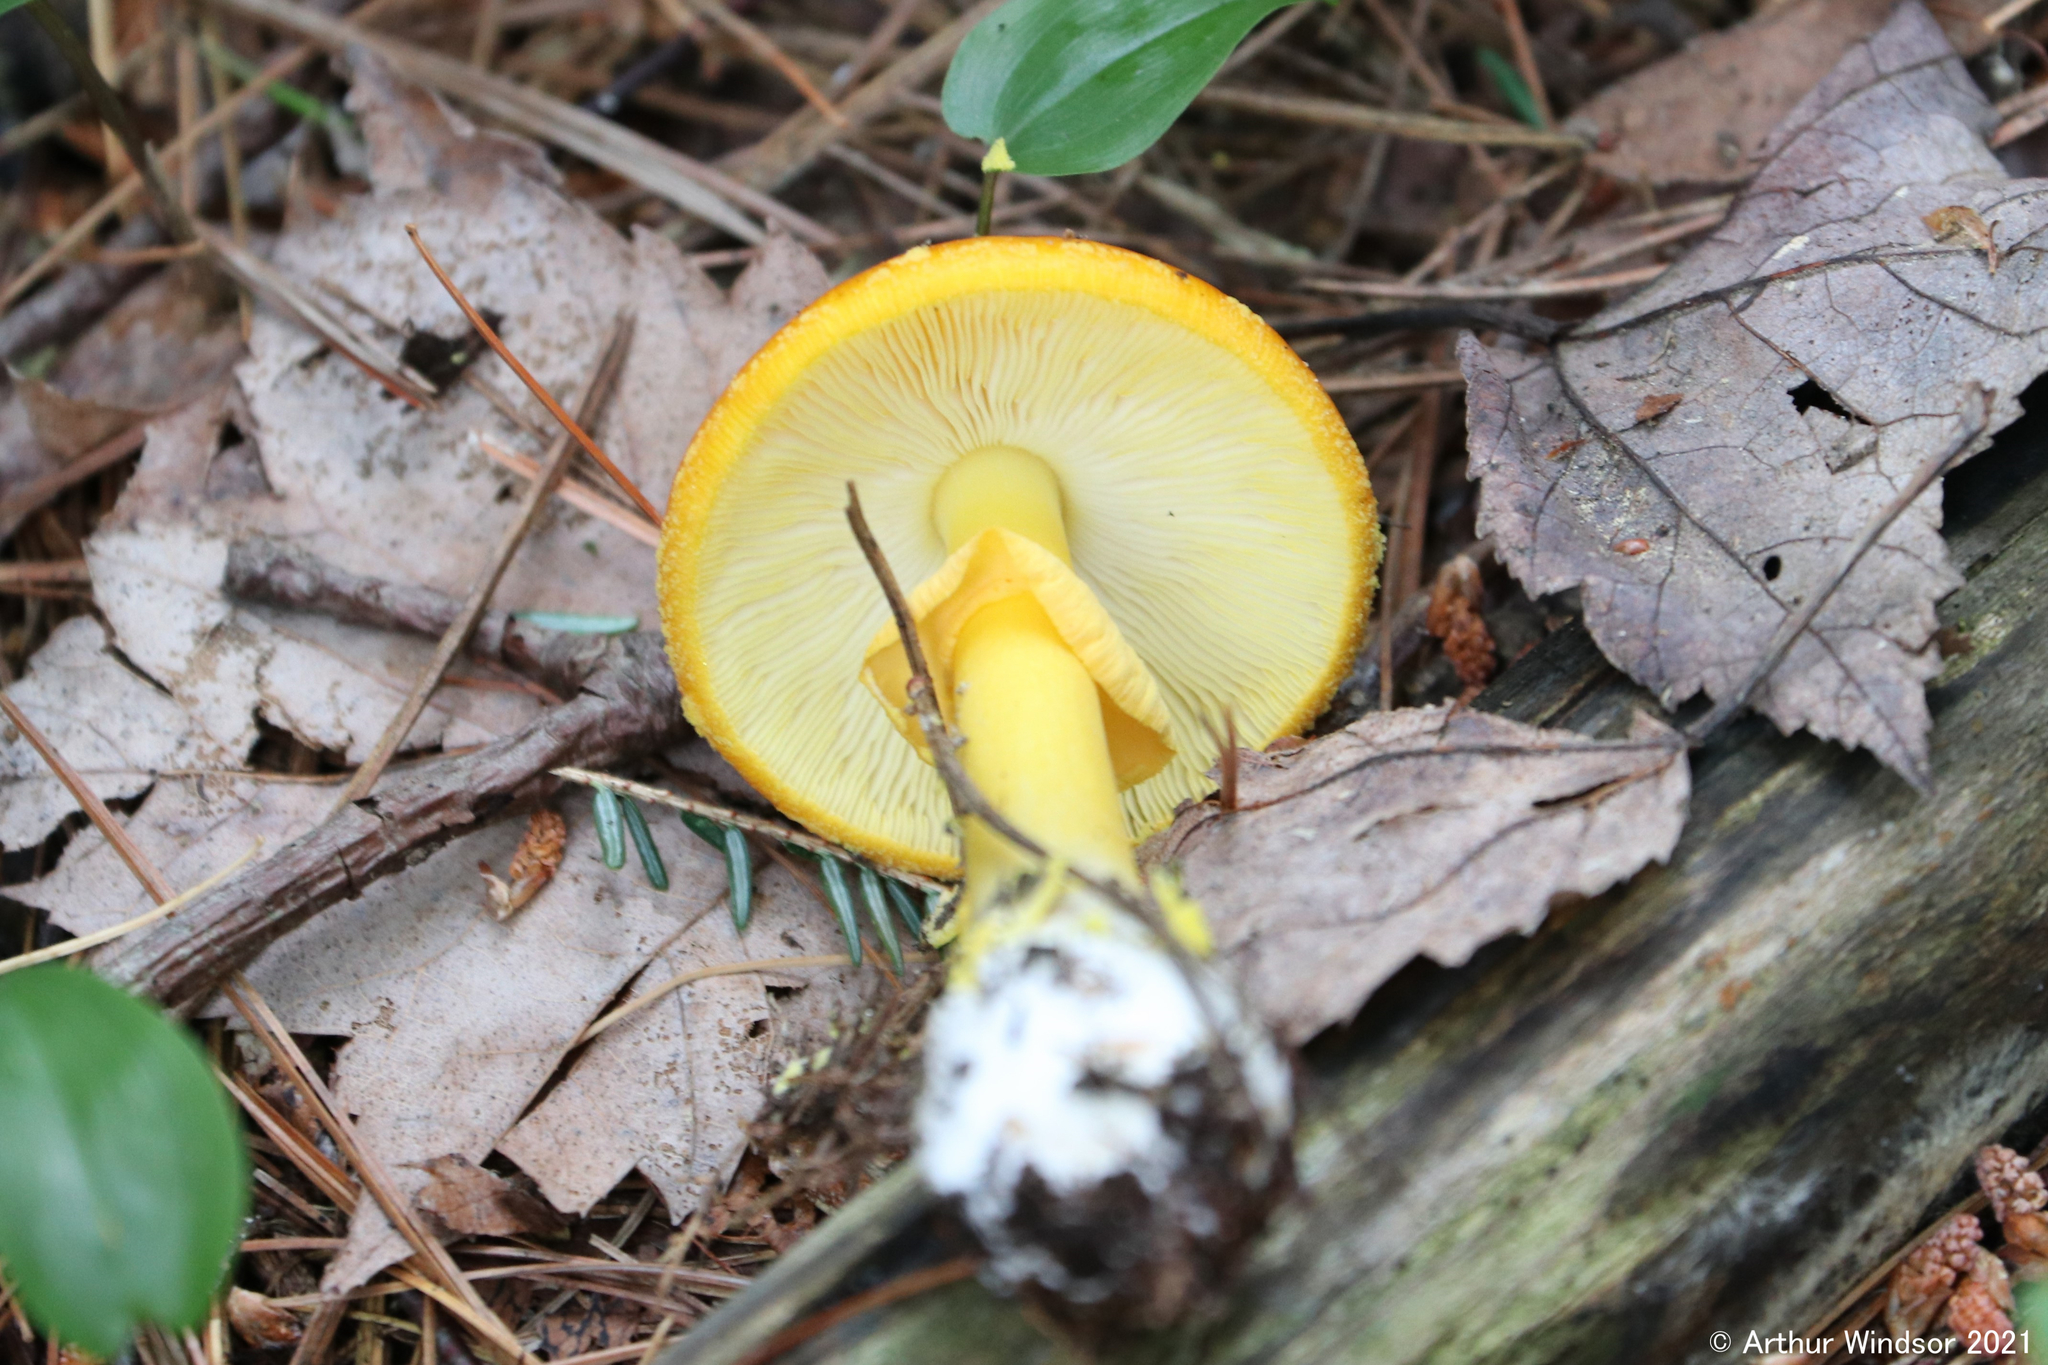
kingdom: Fungi
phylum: Basidiomycota
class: Agaricomycetes
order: Agaricales
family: Amanitaceae
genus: Amanita
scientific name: Amanita flavoconia
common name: Yellow patches
